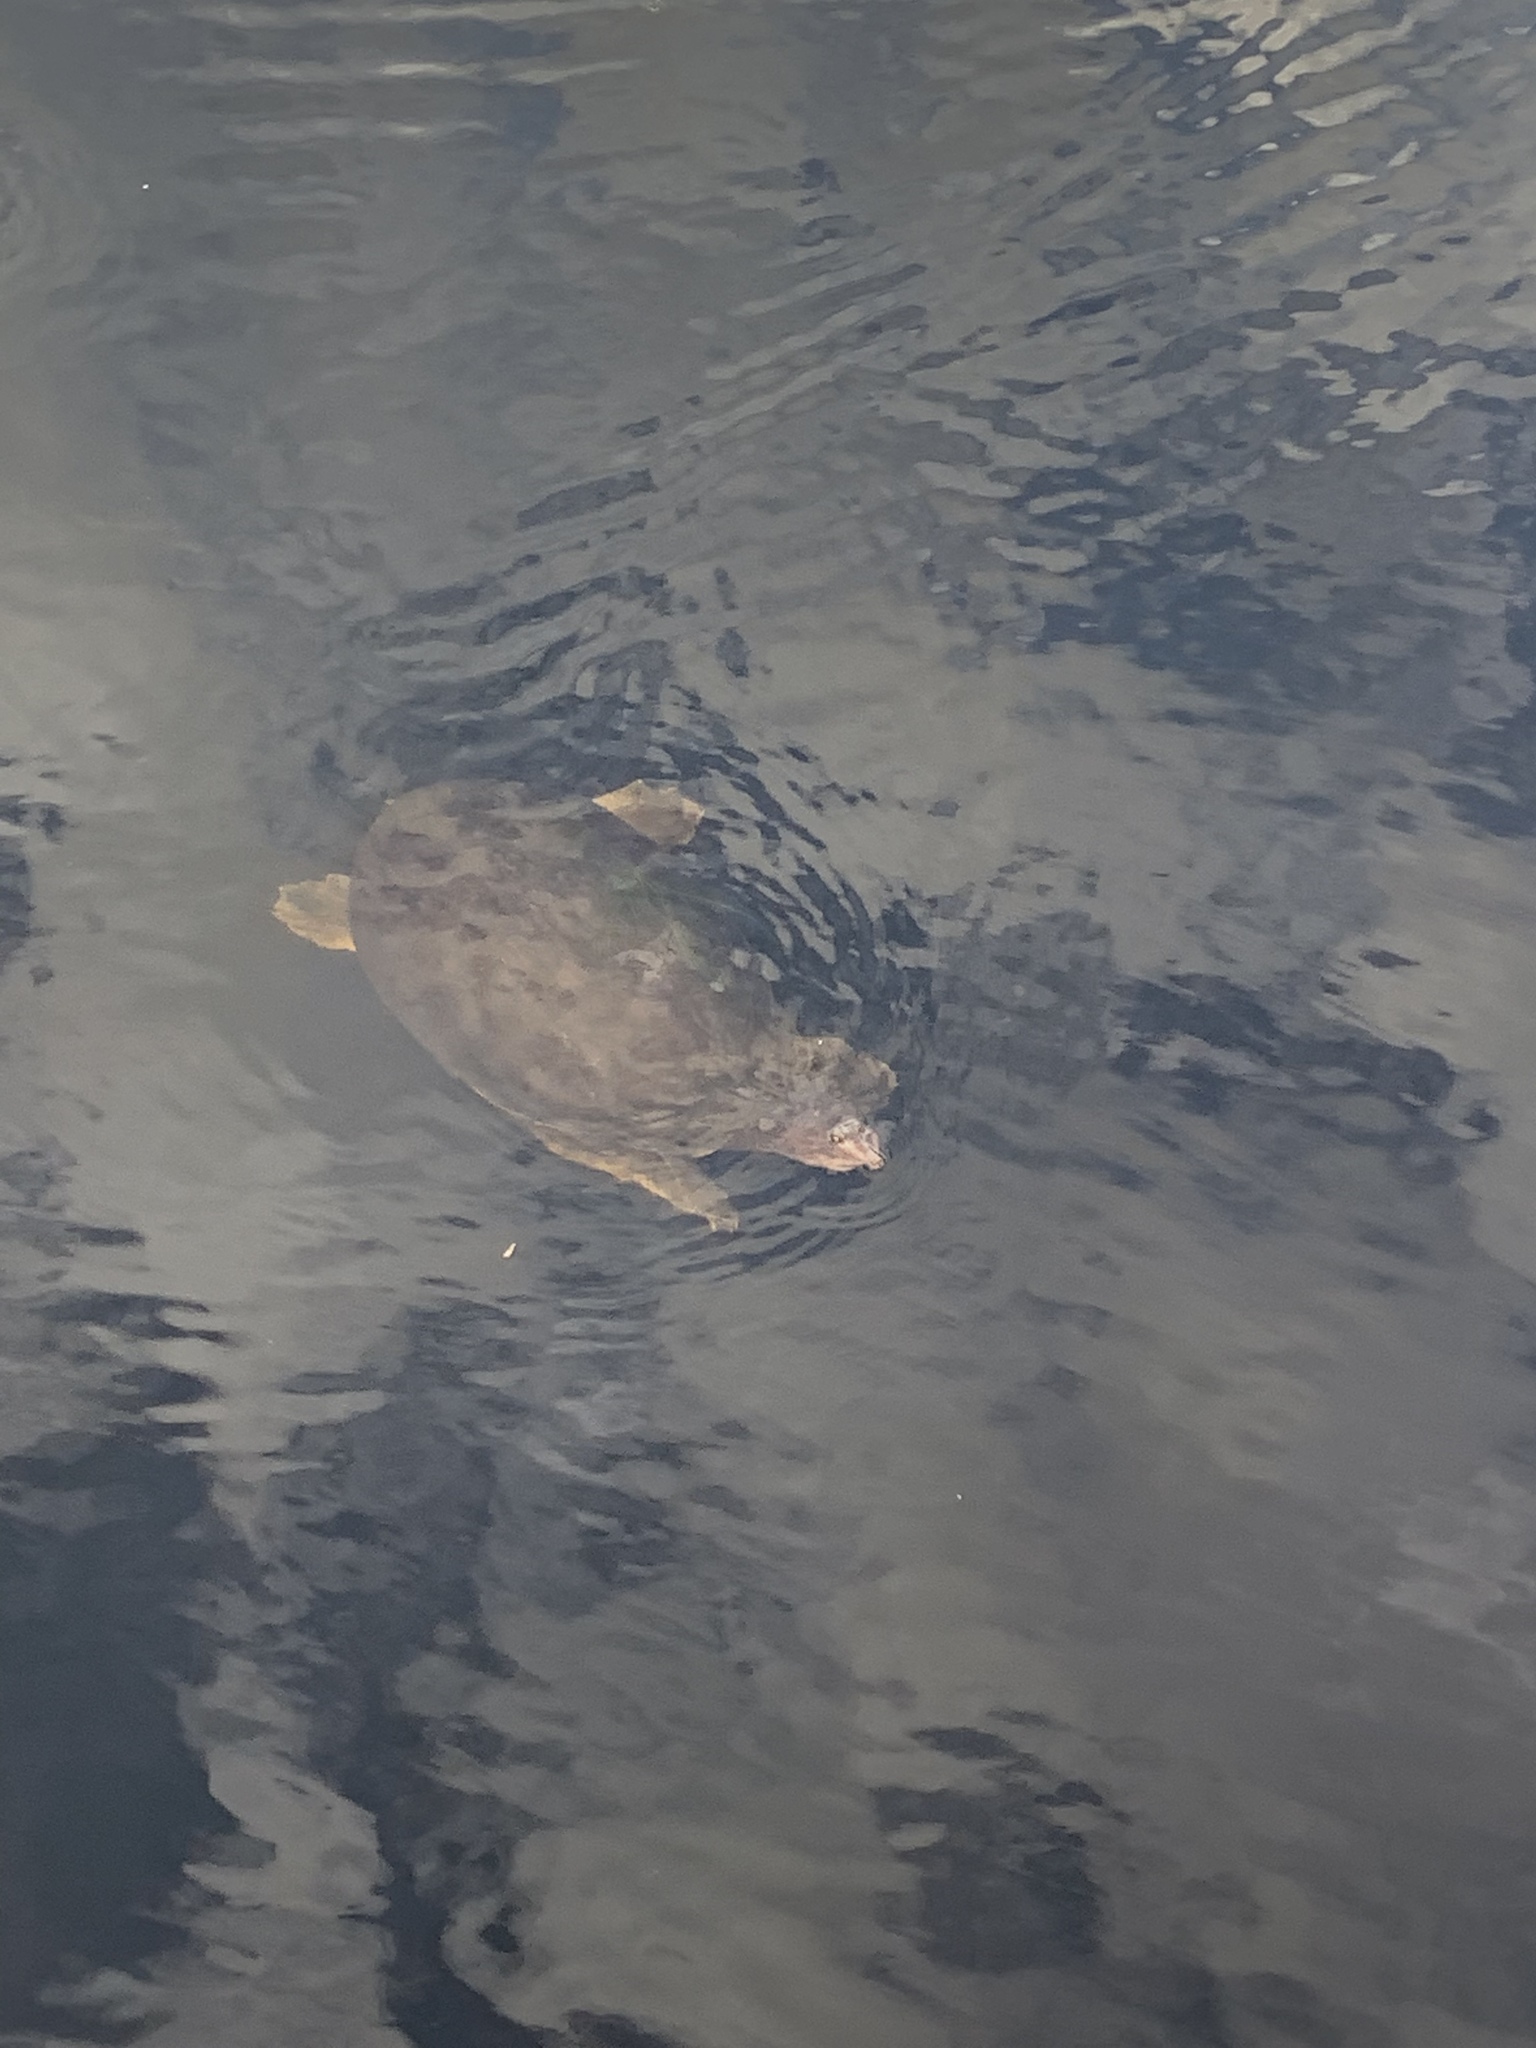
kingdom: Animalia
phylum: Chordata
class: Testudines
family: Trionychidae
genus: Apalone
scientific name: Apalone ferox
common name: Florida softshell turtle
